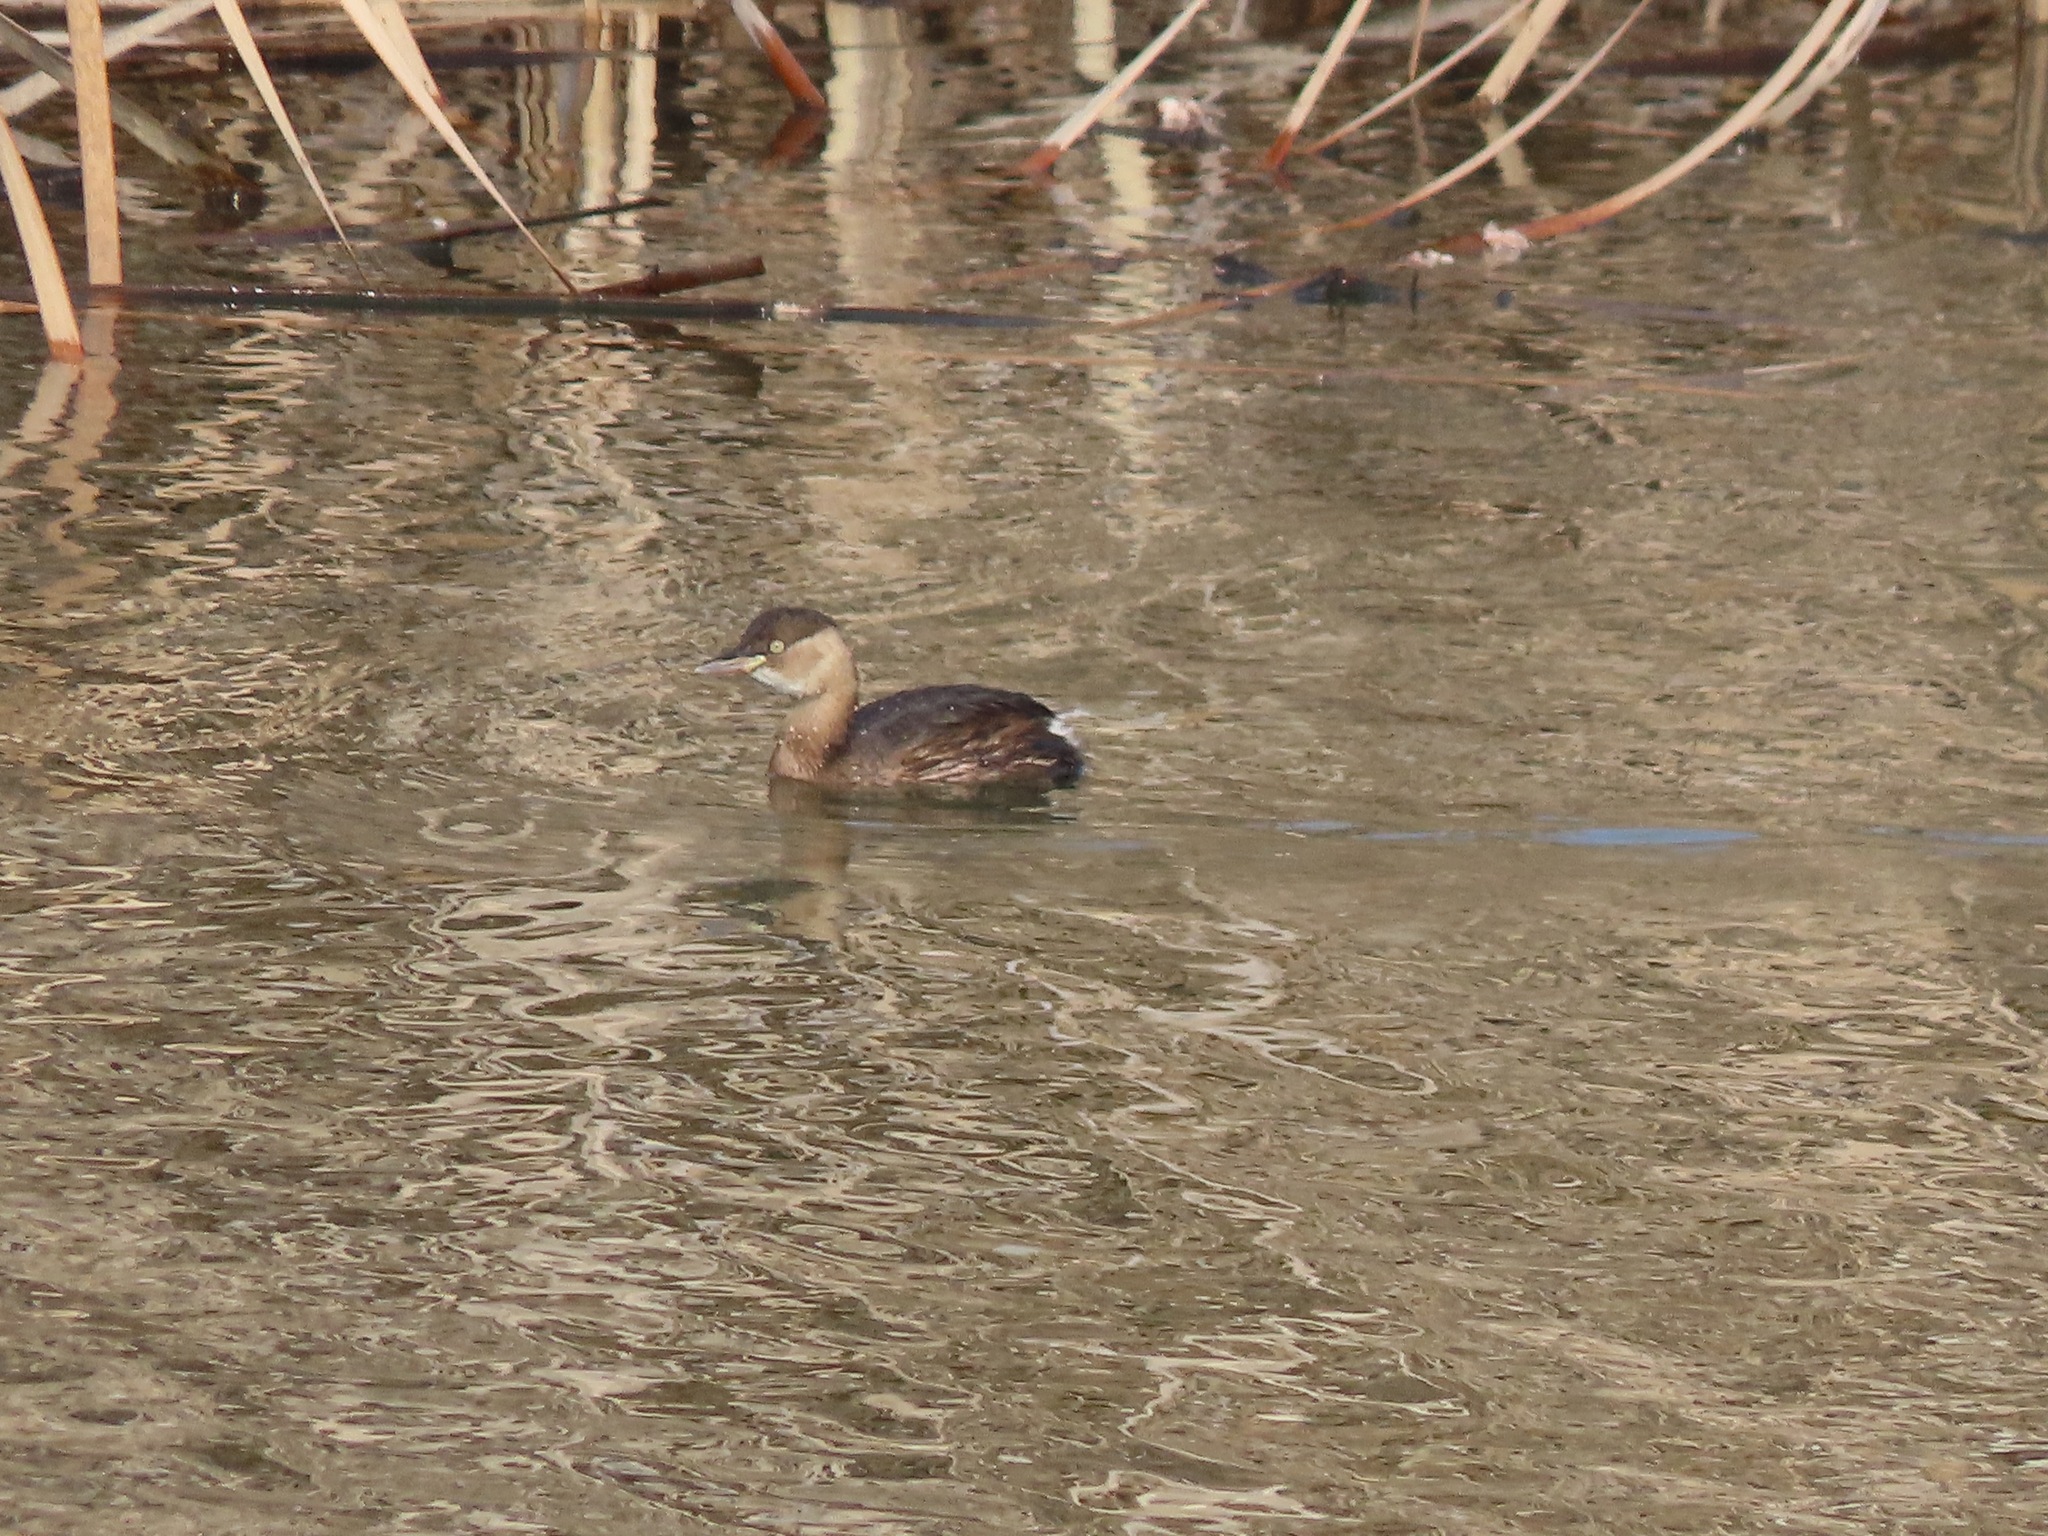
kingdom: Animalia
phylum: Chordata
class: Aves
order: Podicipediformes
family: Podicipedidae
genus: Tachybaptus
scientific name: Tachybaptus ruficollis
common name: Little grebe
